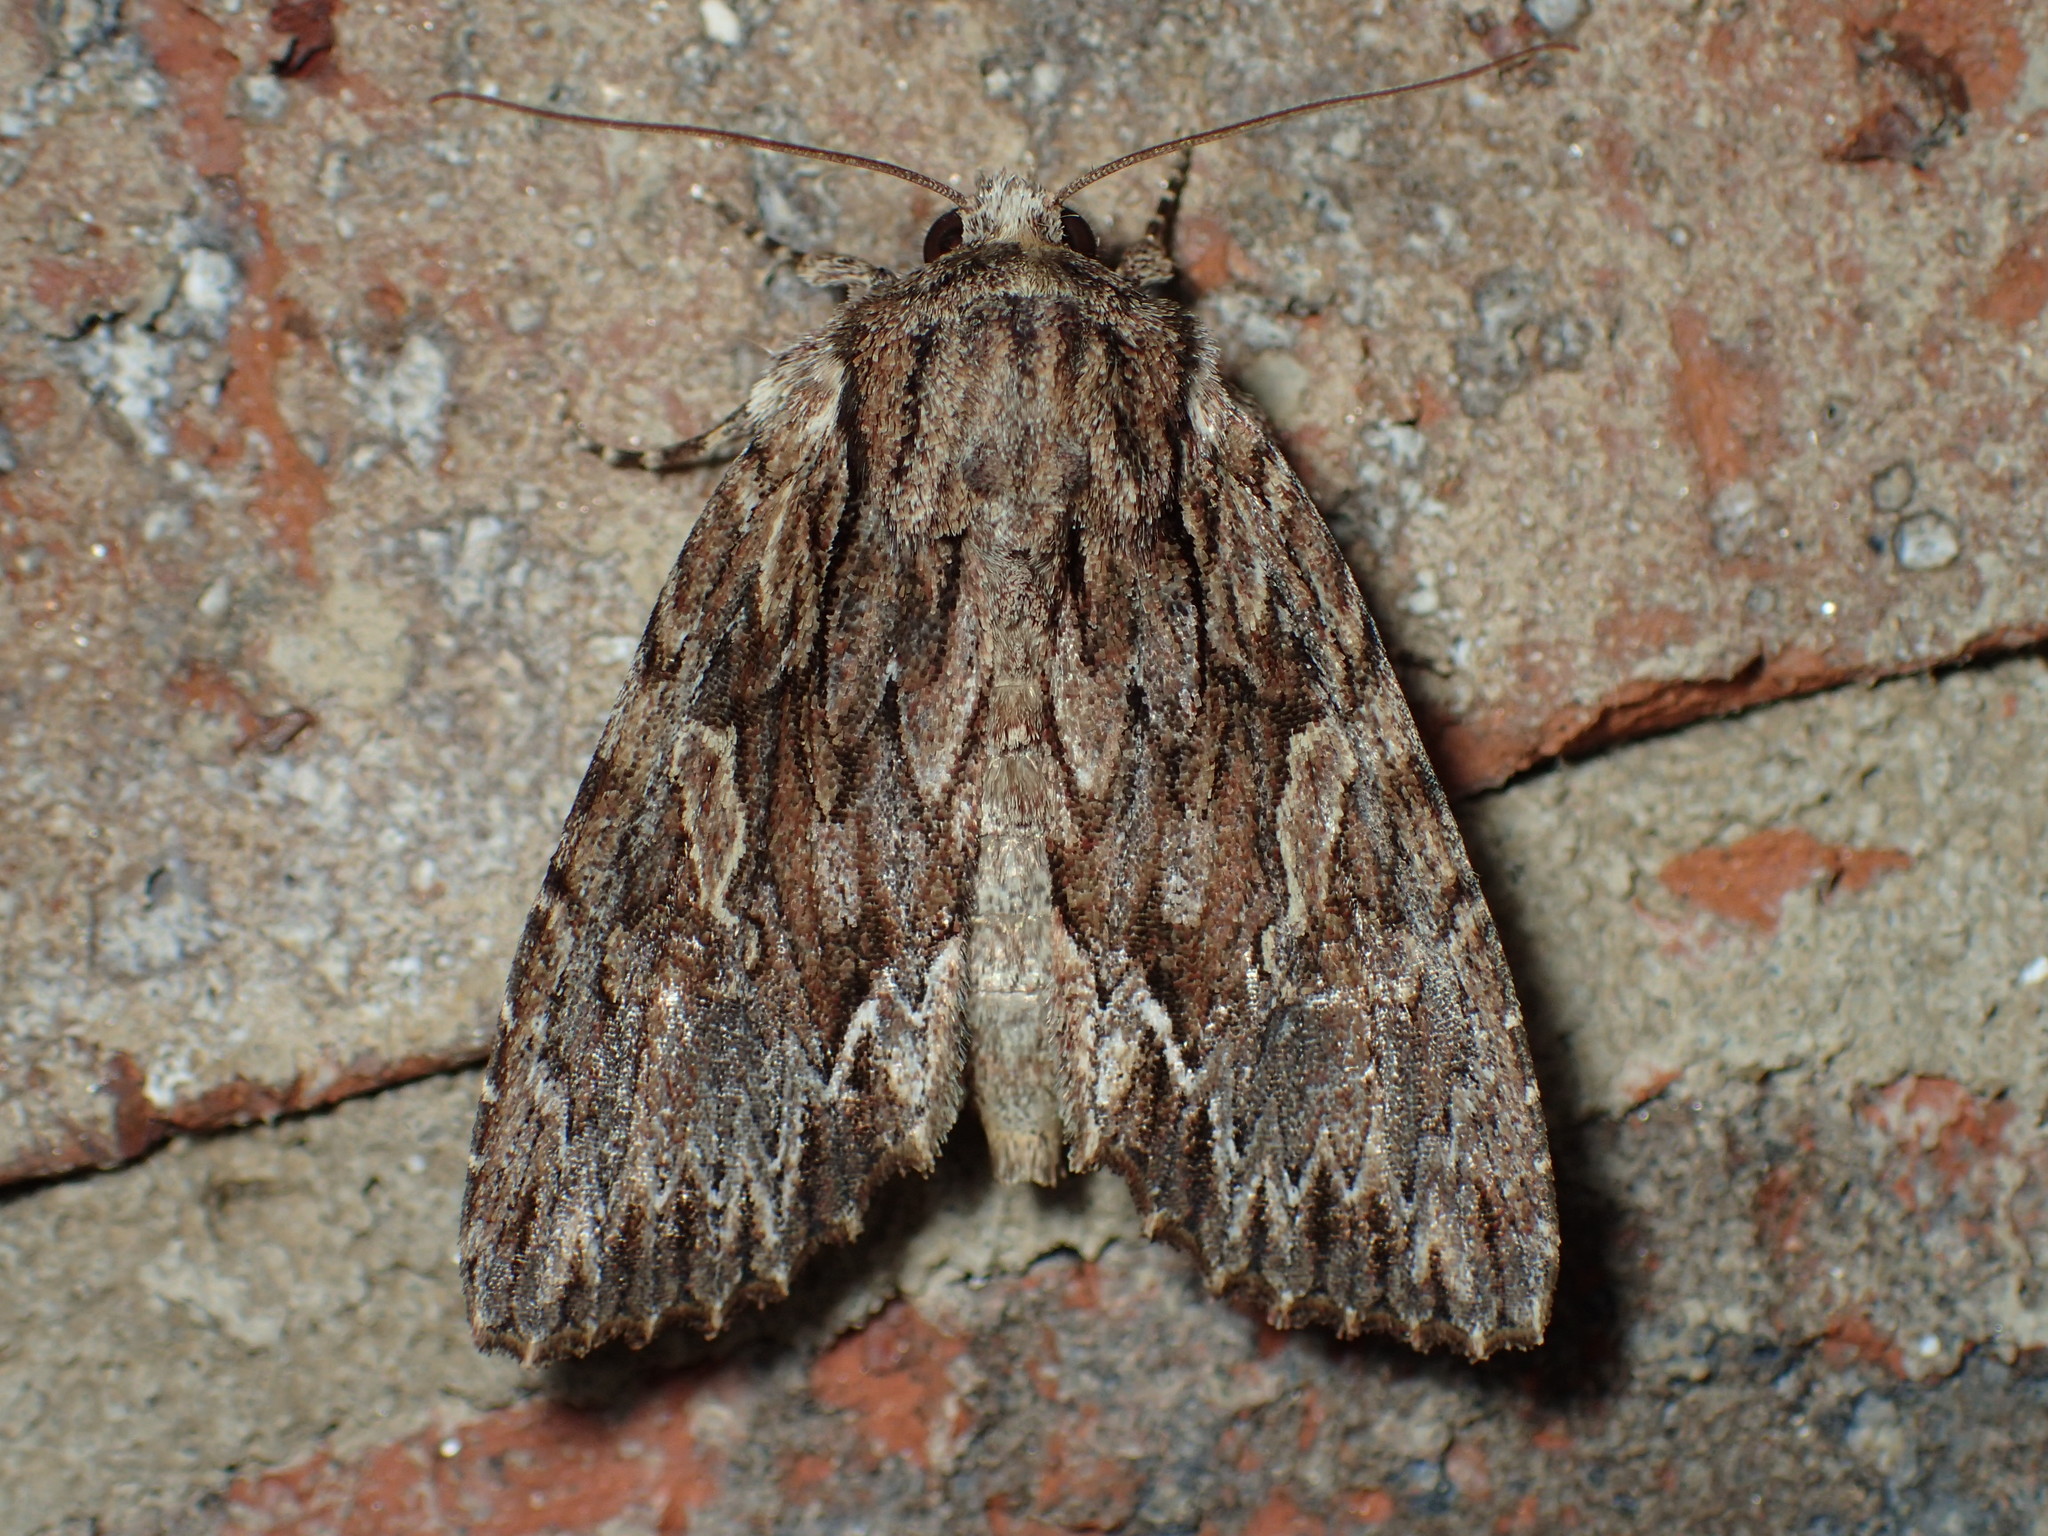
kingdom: Animalia
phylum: Arthropoda
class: Insecta
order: Lepidoptera
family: Noctuidae
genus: Achatia
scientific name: Achatia confusa
